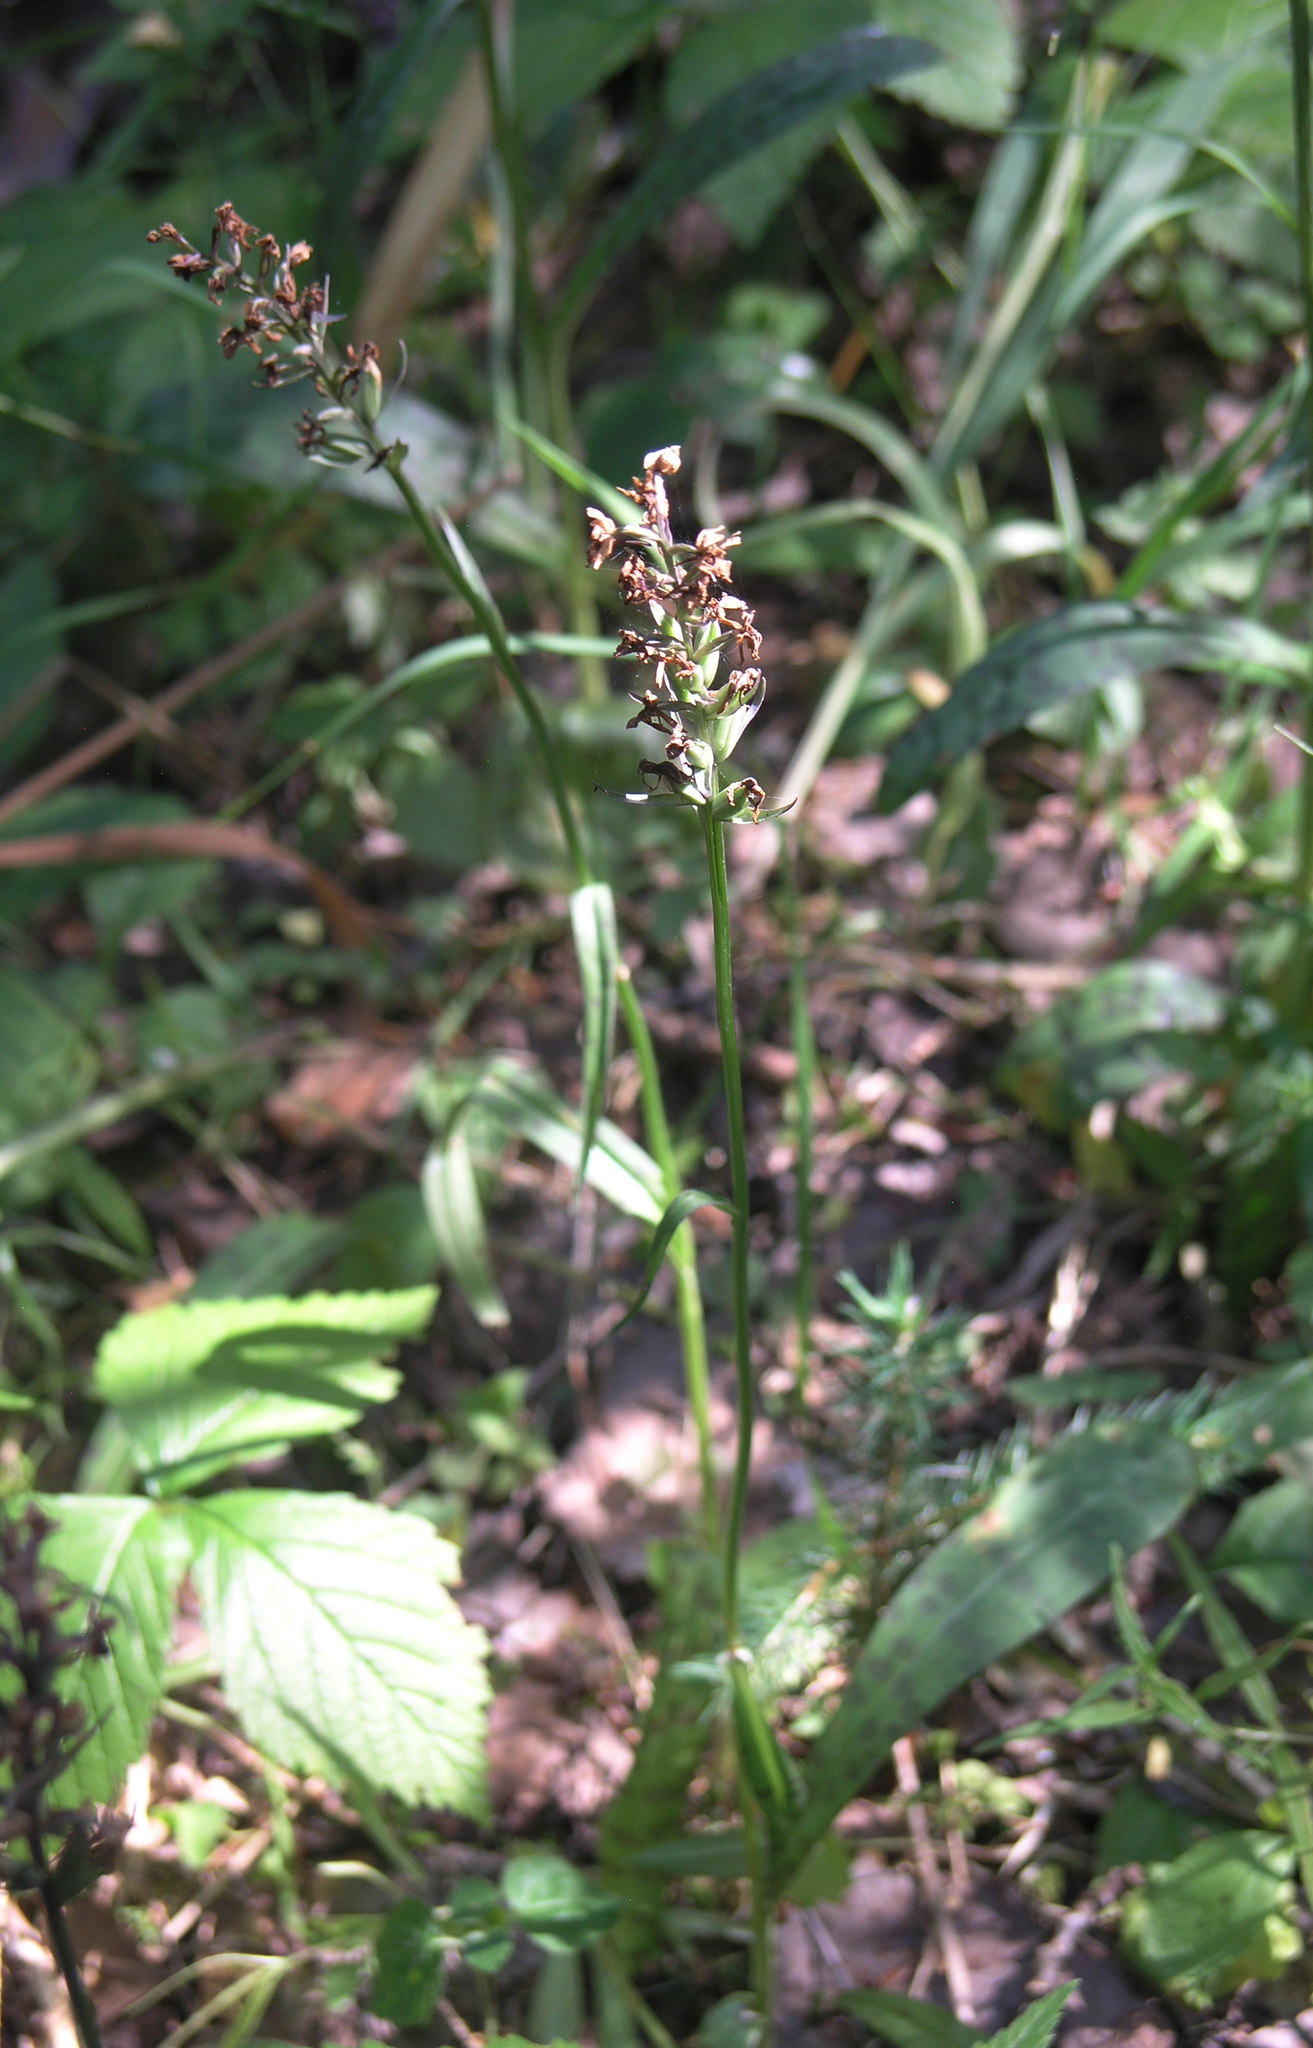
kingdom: Plantae
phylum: Tracheophyta
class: Liliopsida
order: Asparagales
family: Orchidaceae
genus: Dactylorhiza
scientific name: Dactylorhiza maculata
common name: Heath spotted-orchid
